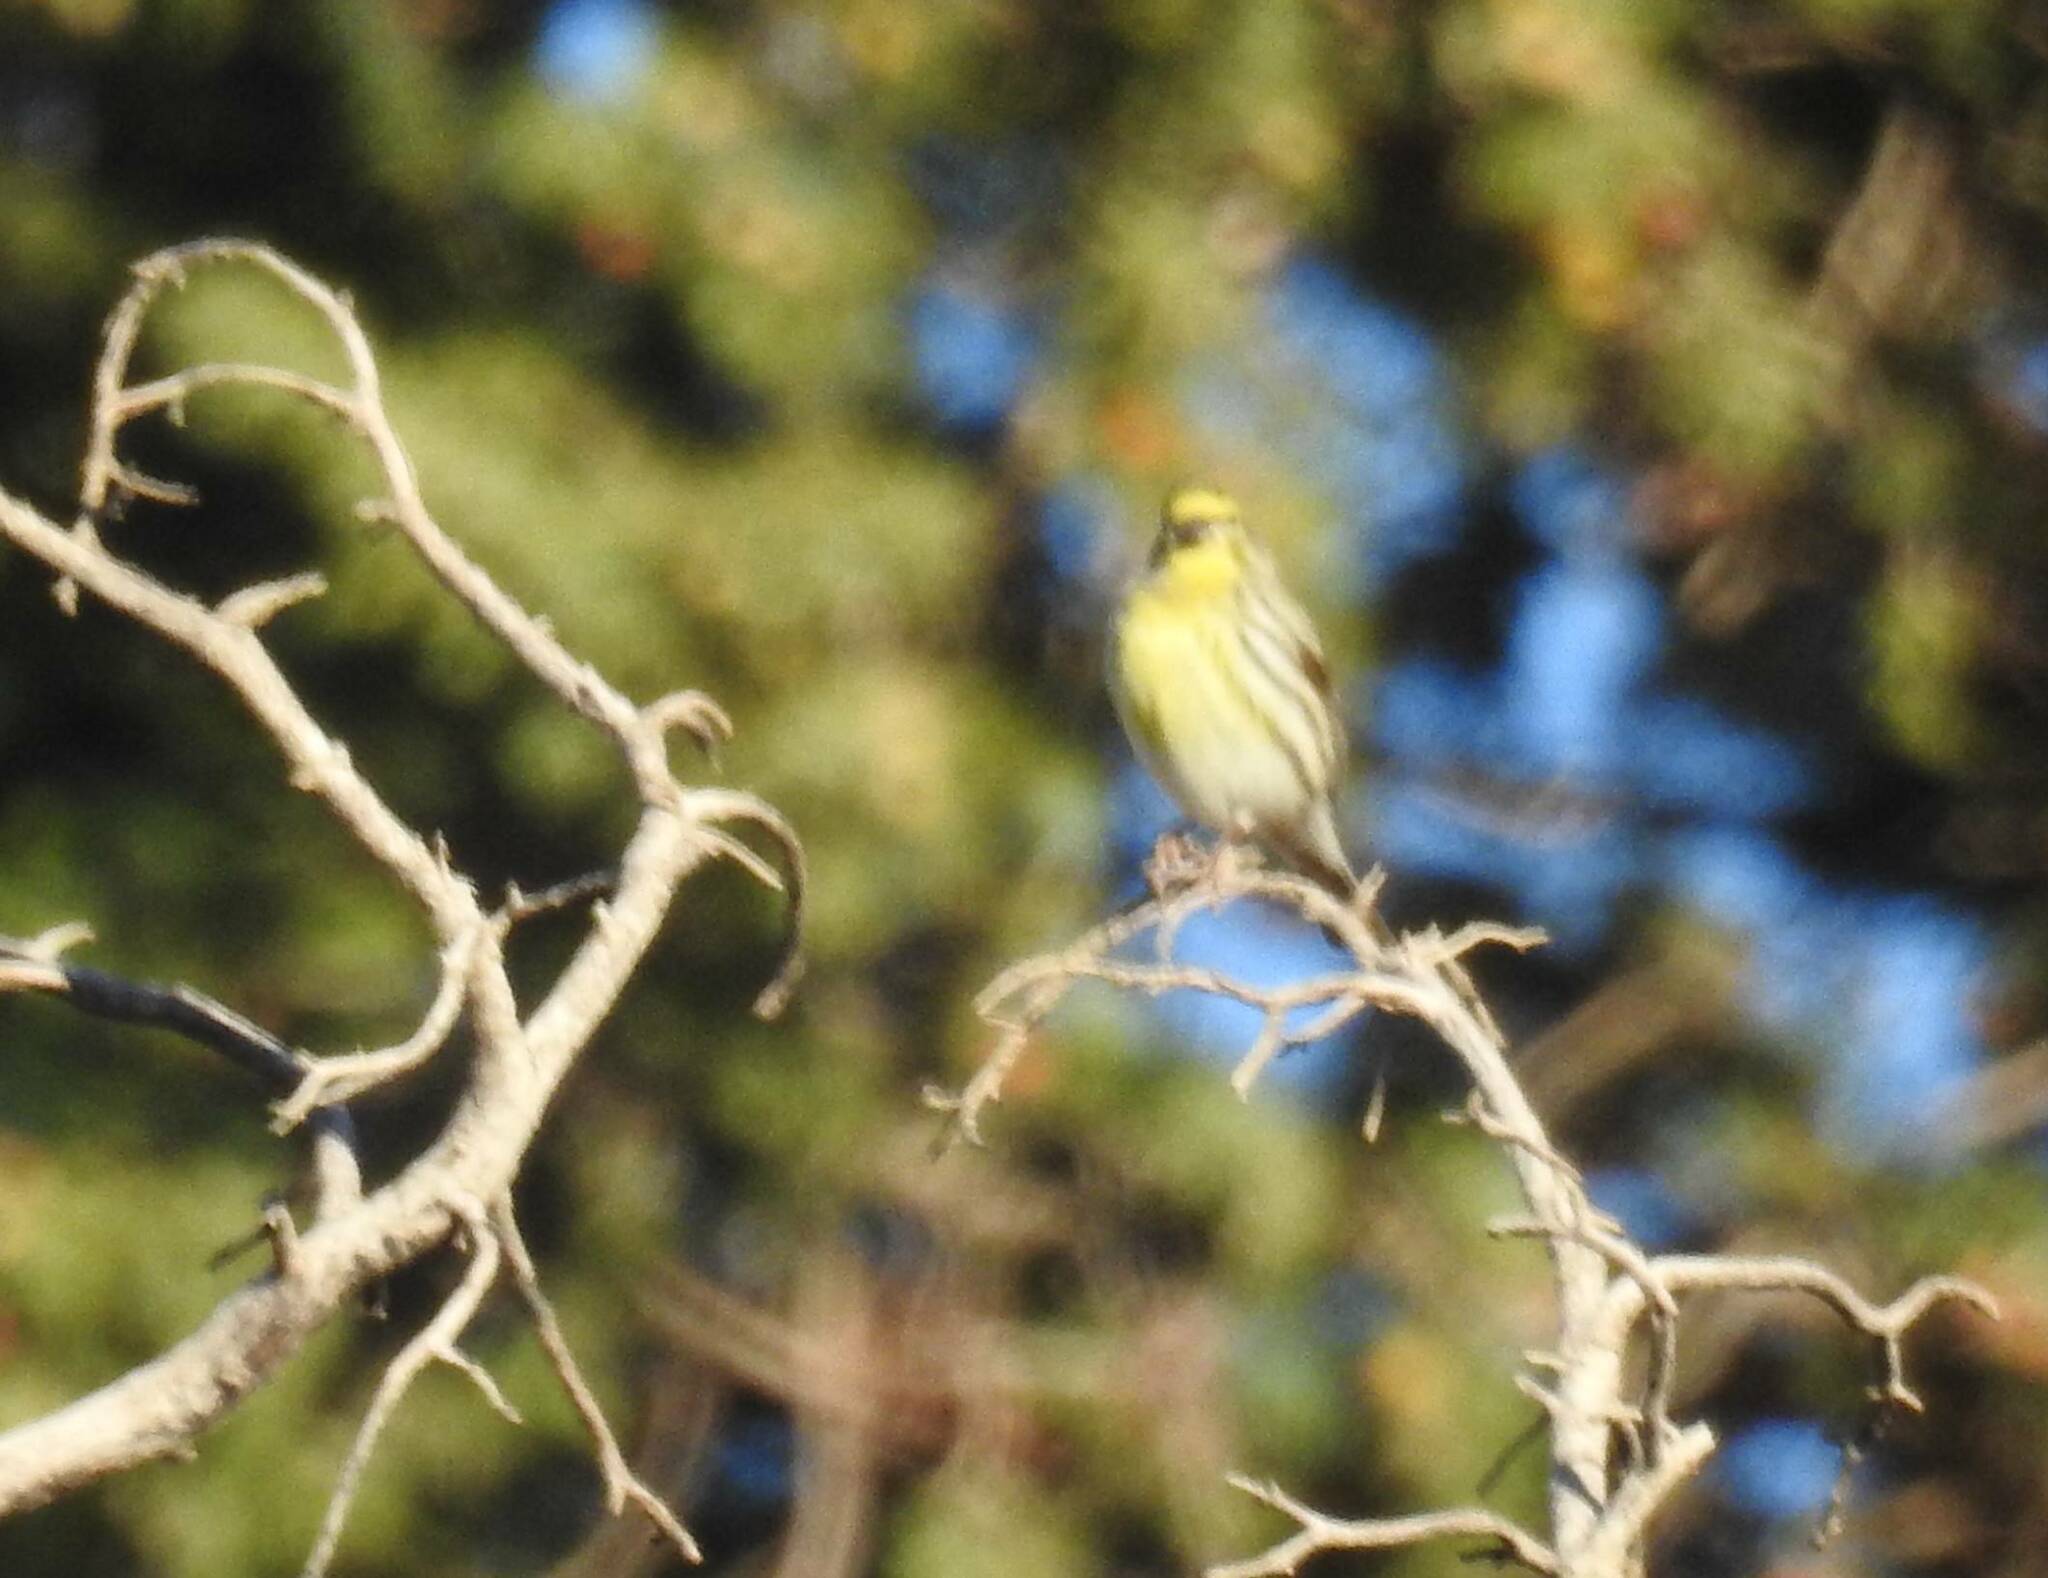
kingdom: Animalia
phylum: Chordata
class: Aves
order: Passeriformes
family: Fringillidae
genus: Serinus
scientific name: Serinus serinus
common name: European serin
